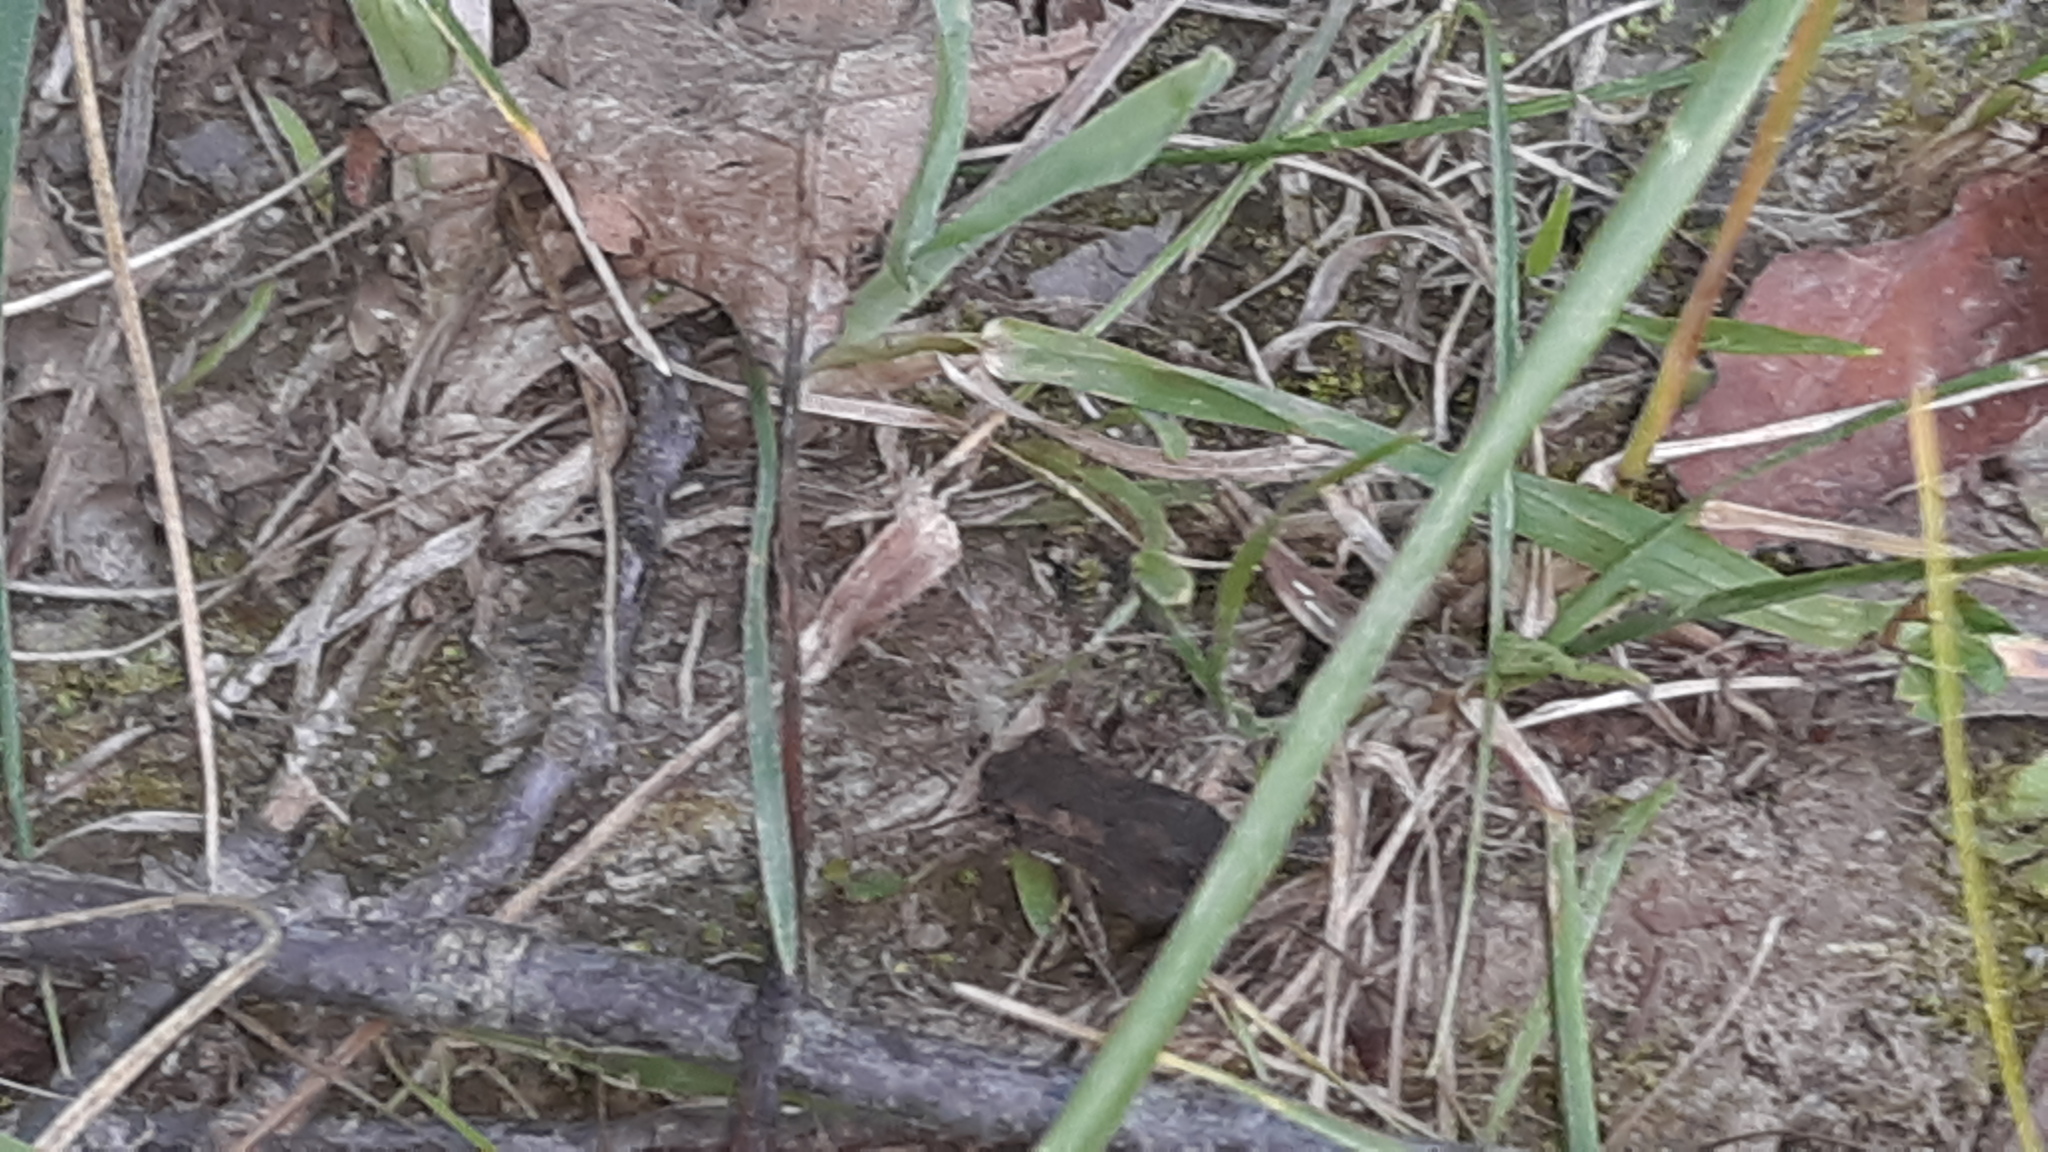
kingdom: Animalia
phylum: Chordata
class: Amphibia
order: Anura
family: Bufonidae
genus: Anaxyrus
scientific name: Anaxyrus americanus
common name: American toad
